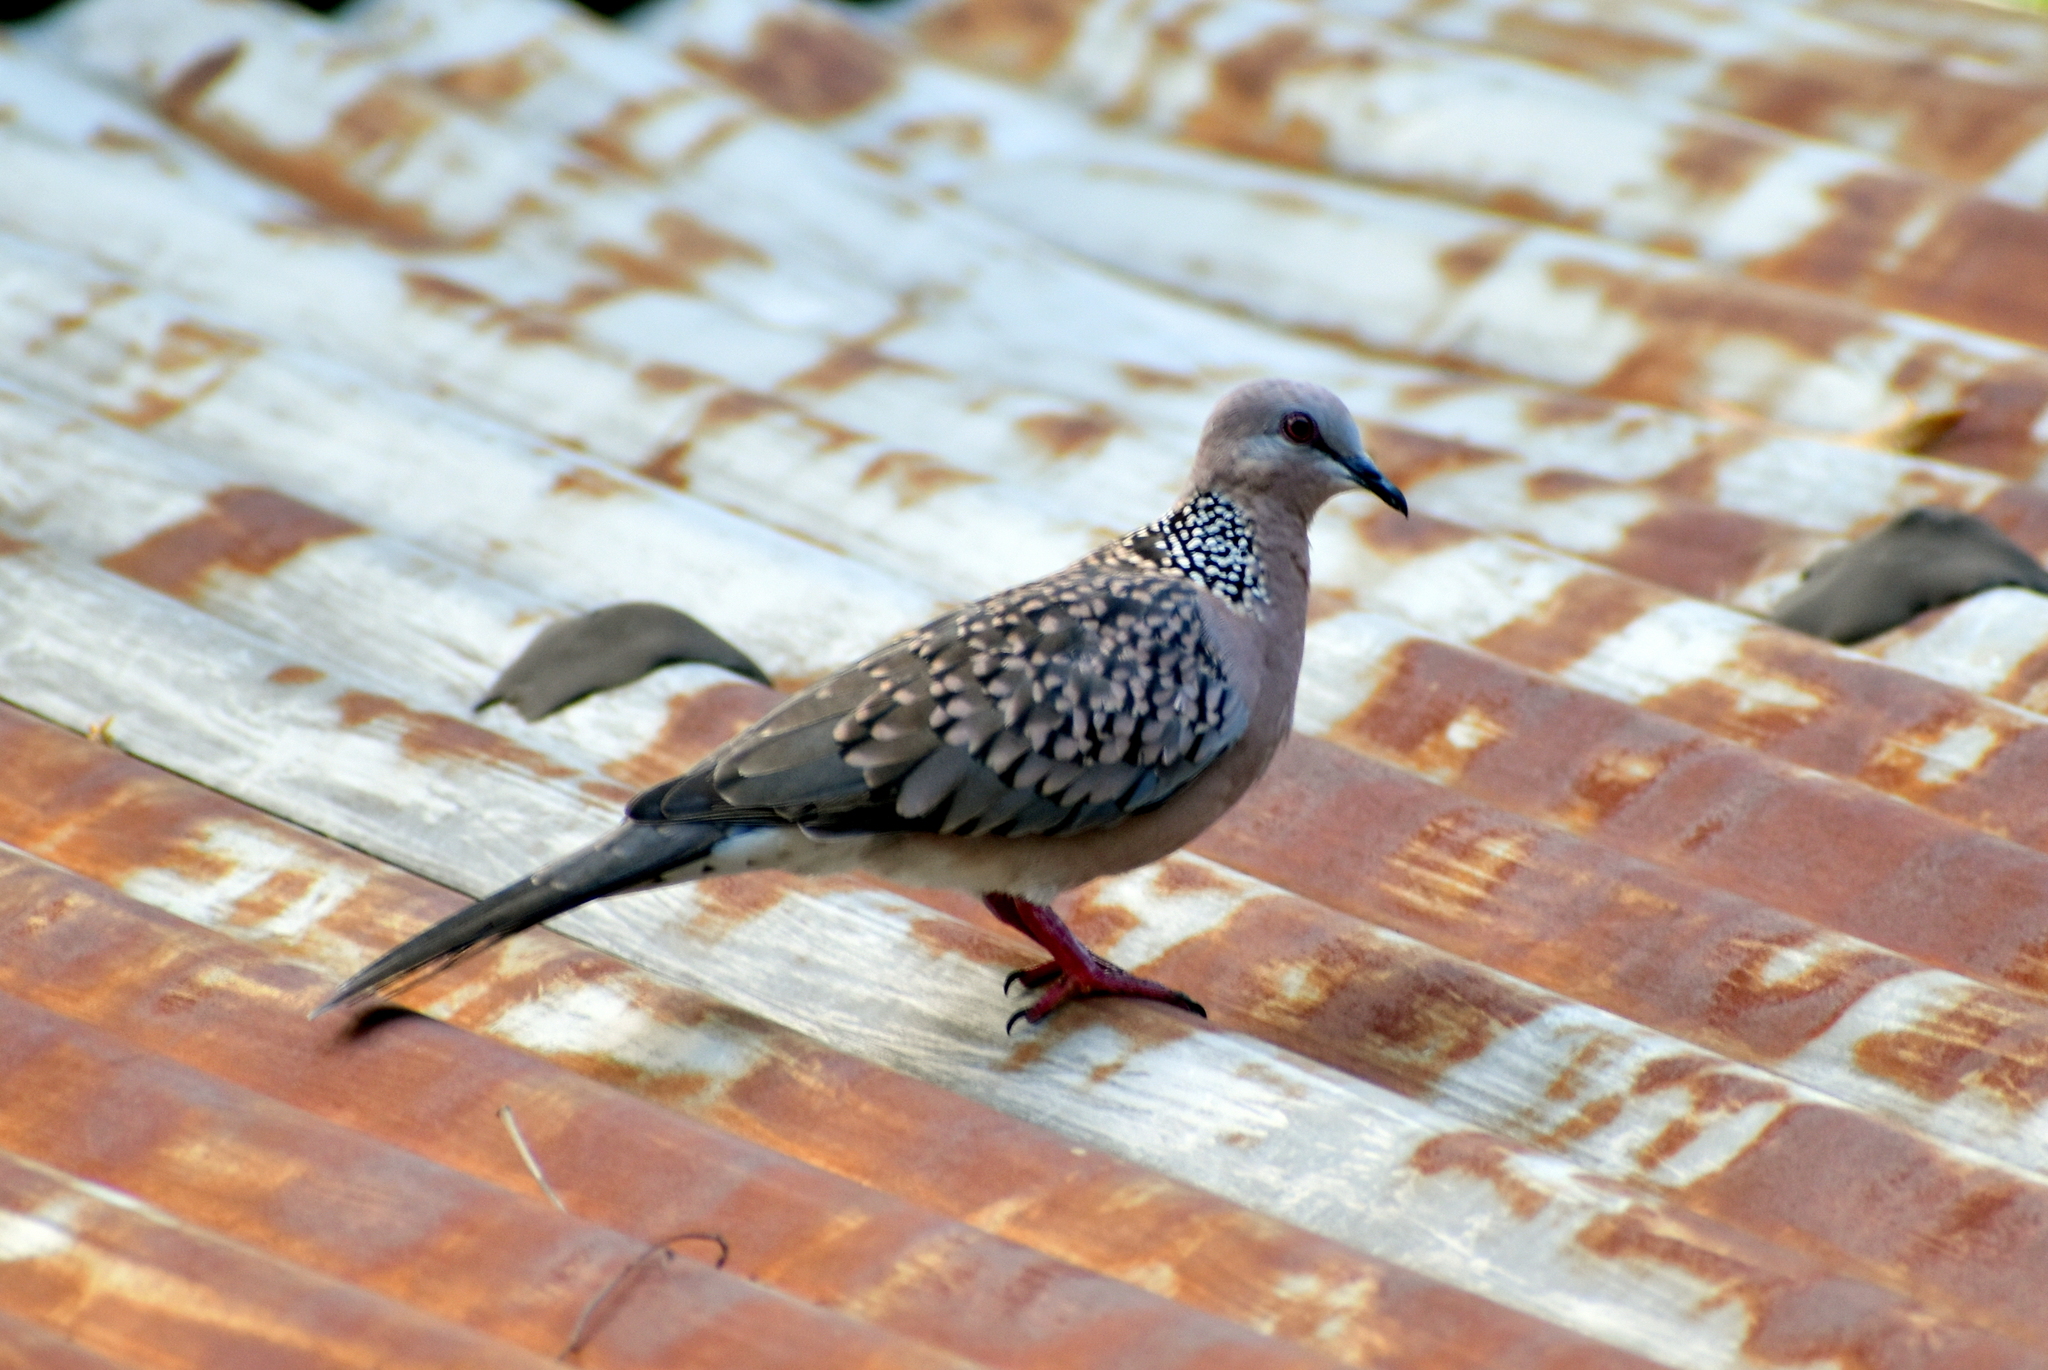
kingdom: Animalia
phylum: Chordata
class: Aves
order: Columbiformes
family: Columbidae
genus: Spilopelia
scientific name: Spilopelia chinensis
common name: Spotted dove
